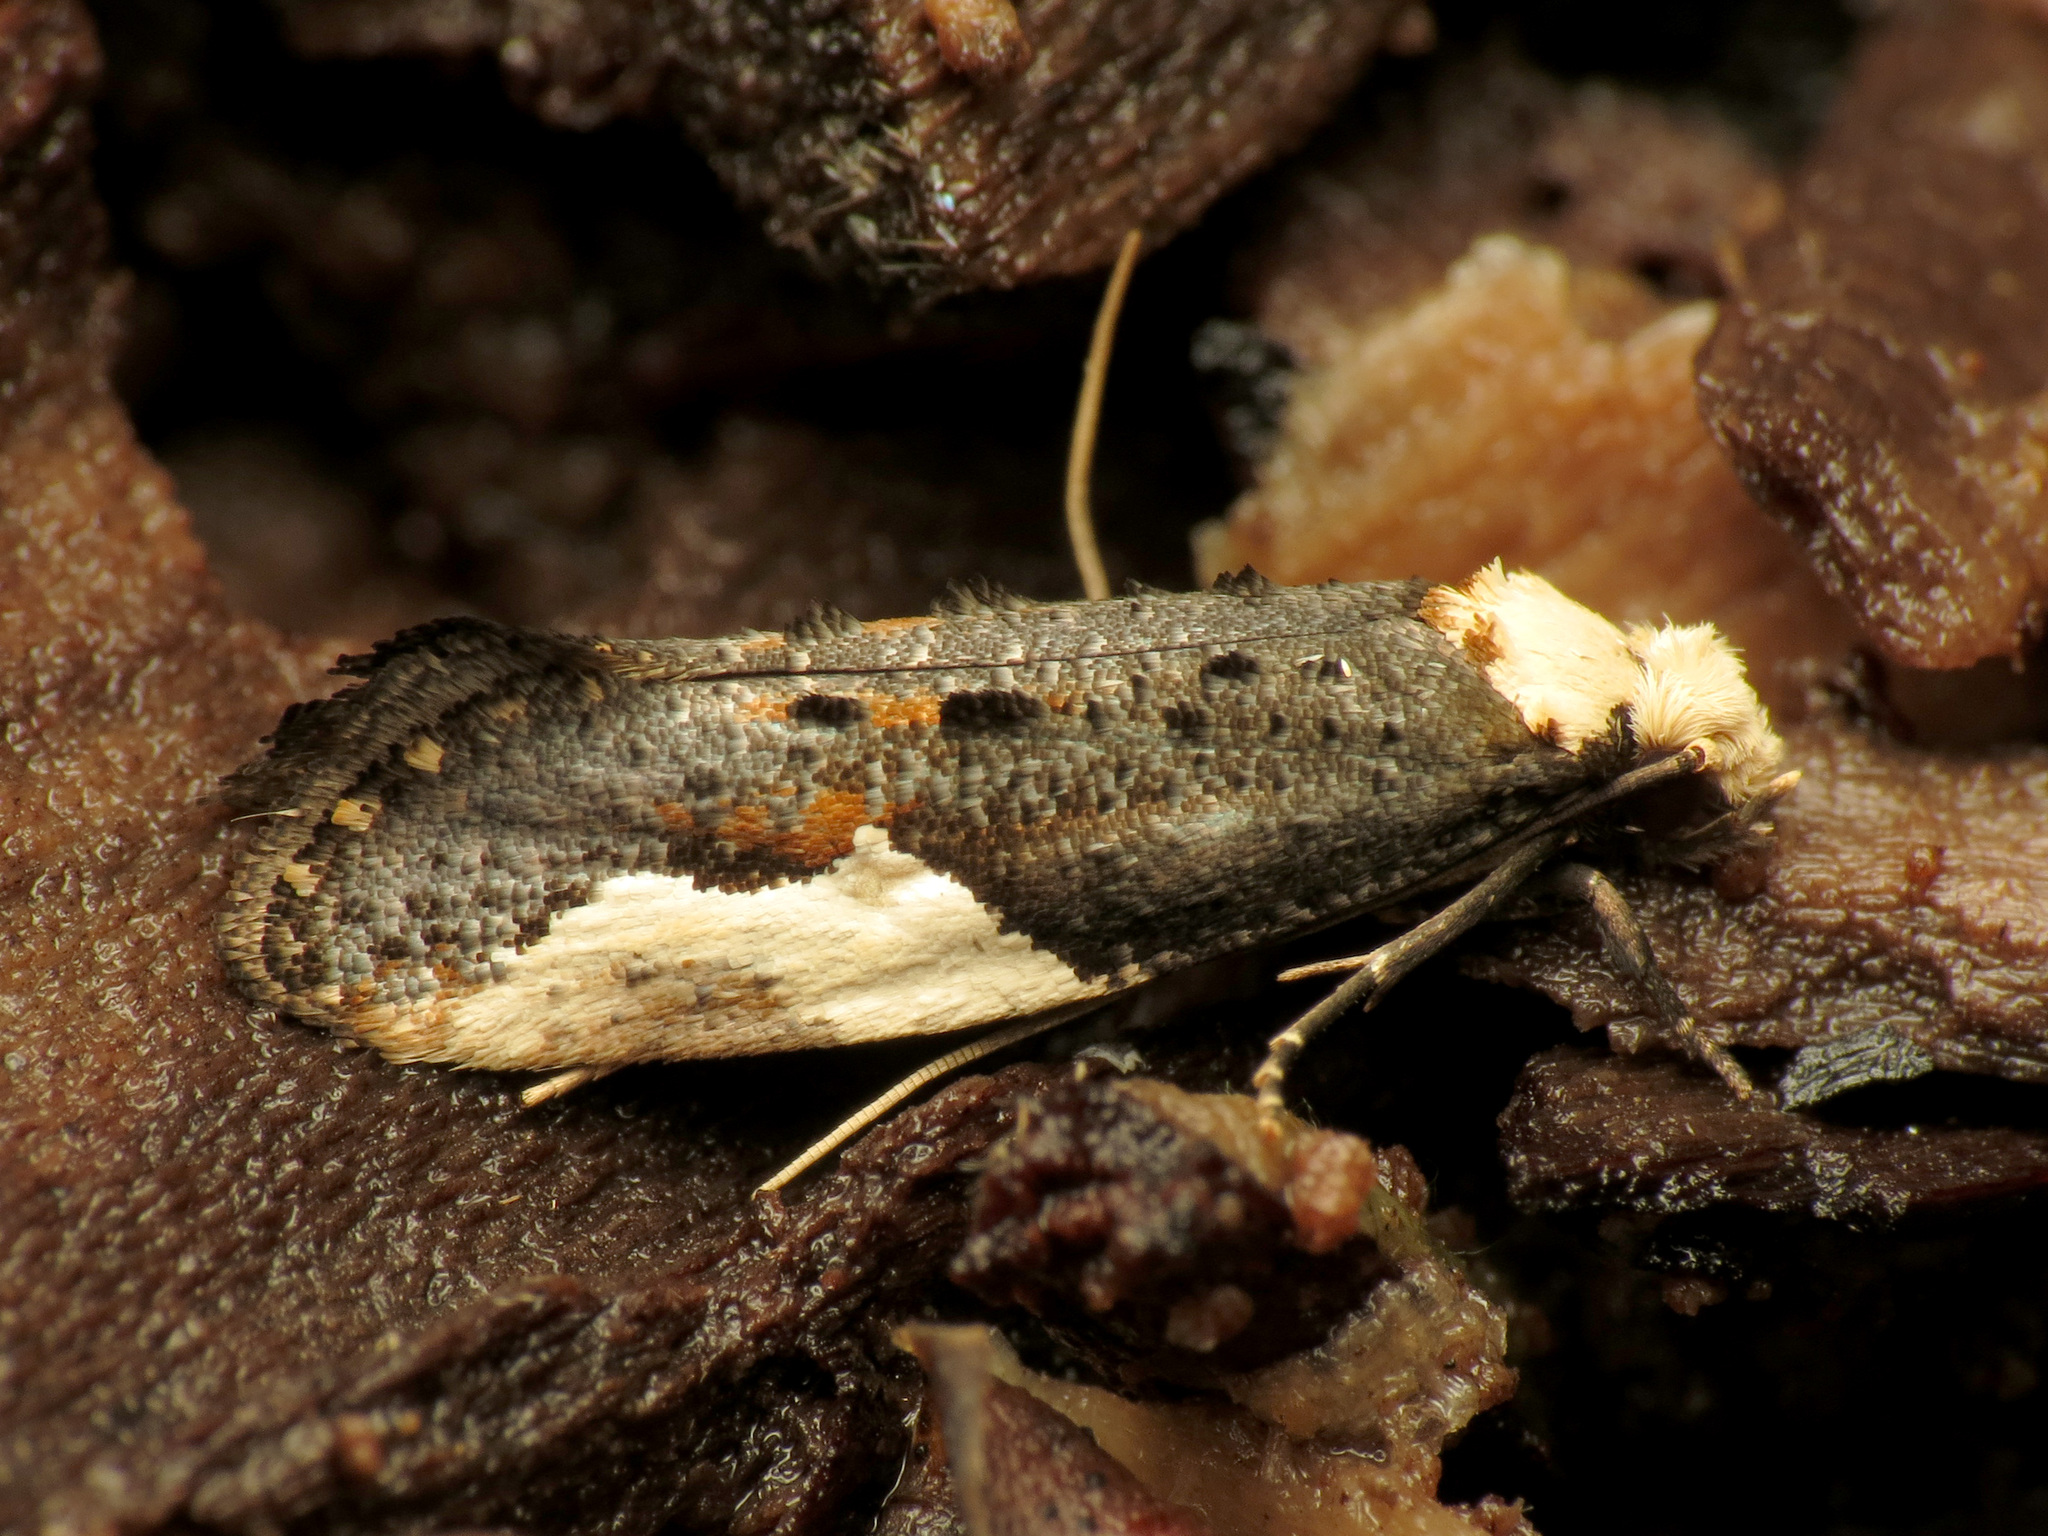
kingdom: Animalia
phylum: Arthropoda
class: Insecta
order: Lepidoptera
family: Tineidae
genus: Monopis
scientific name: Monopis longella
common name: Pavlovski's monopis moth
